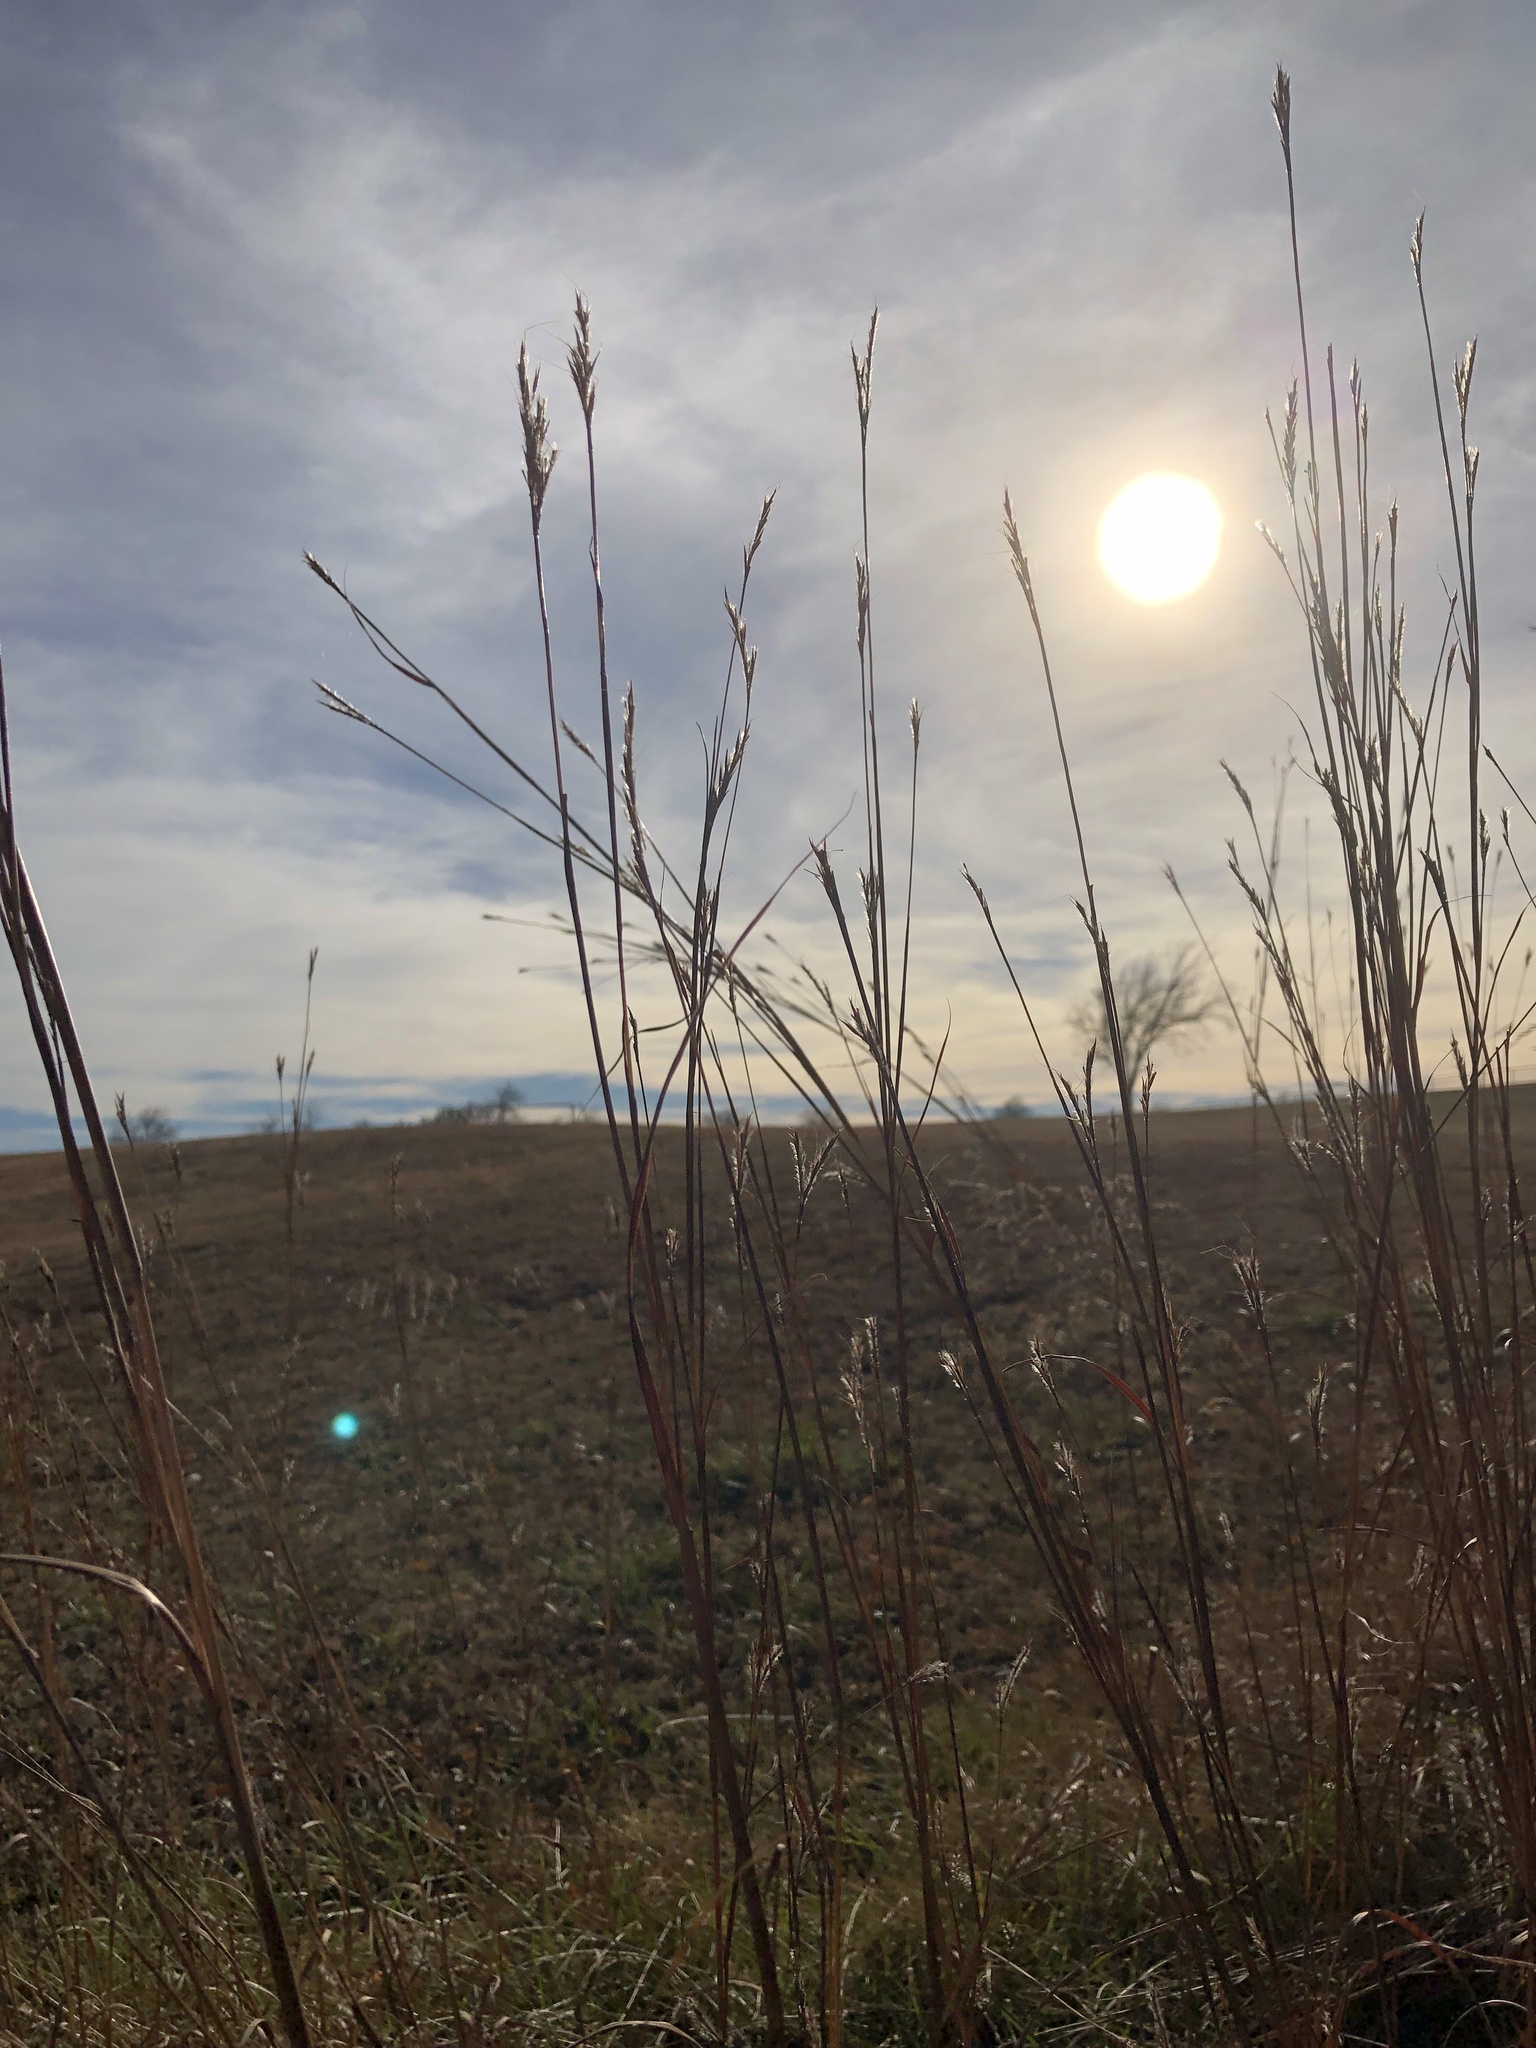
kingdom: Plantae
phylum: Tracheophyta
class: Liliopsida
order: Poales
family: Poaceae
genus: Andropogon
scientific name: Andropogon gerardi
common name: Big bluestem
